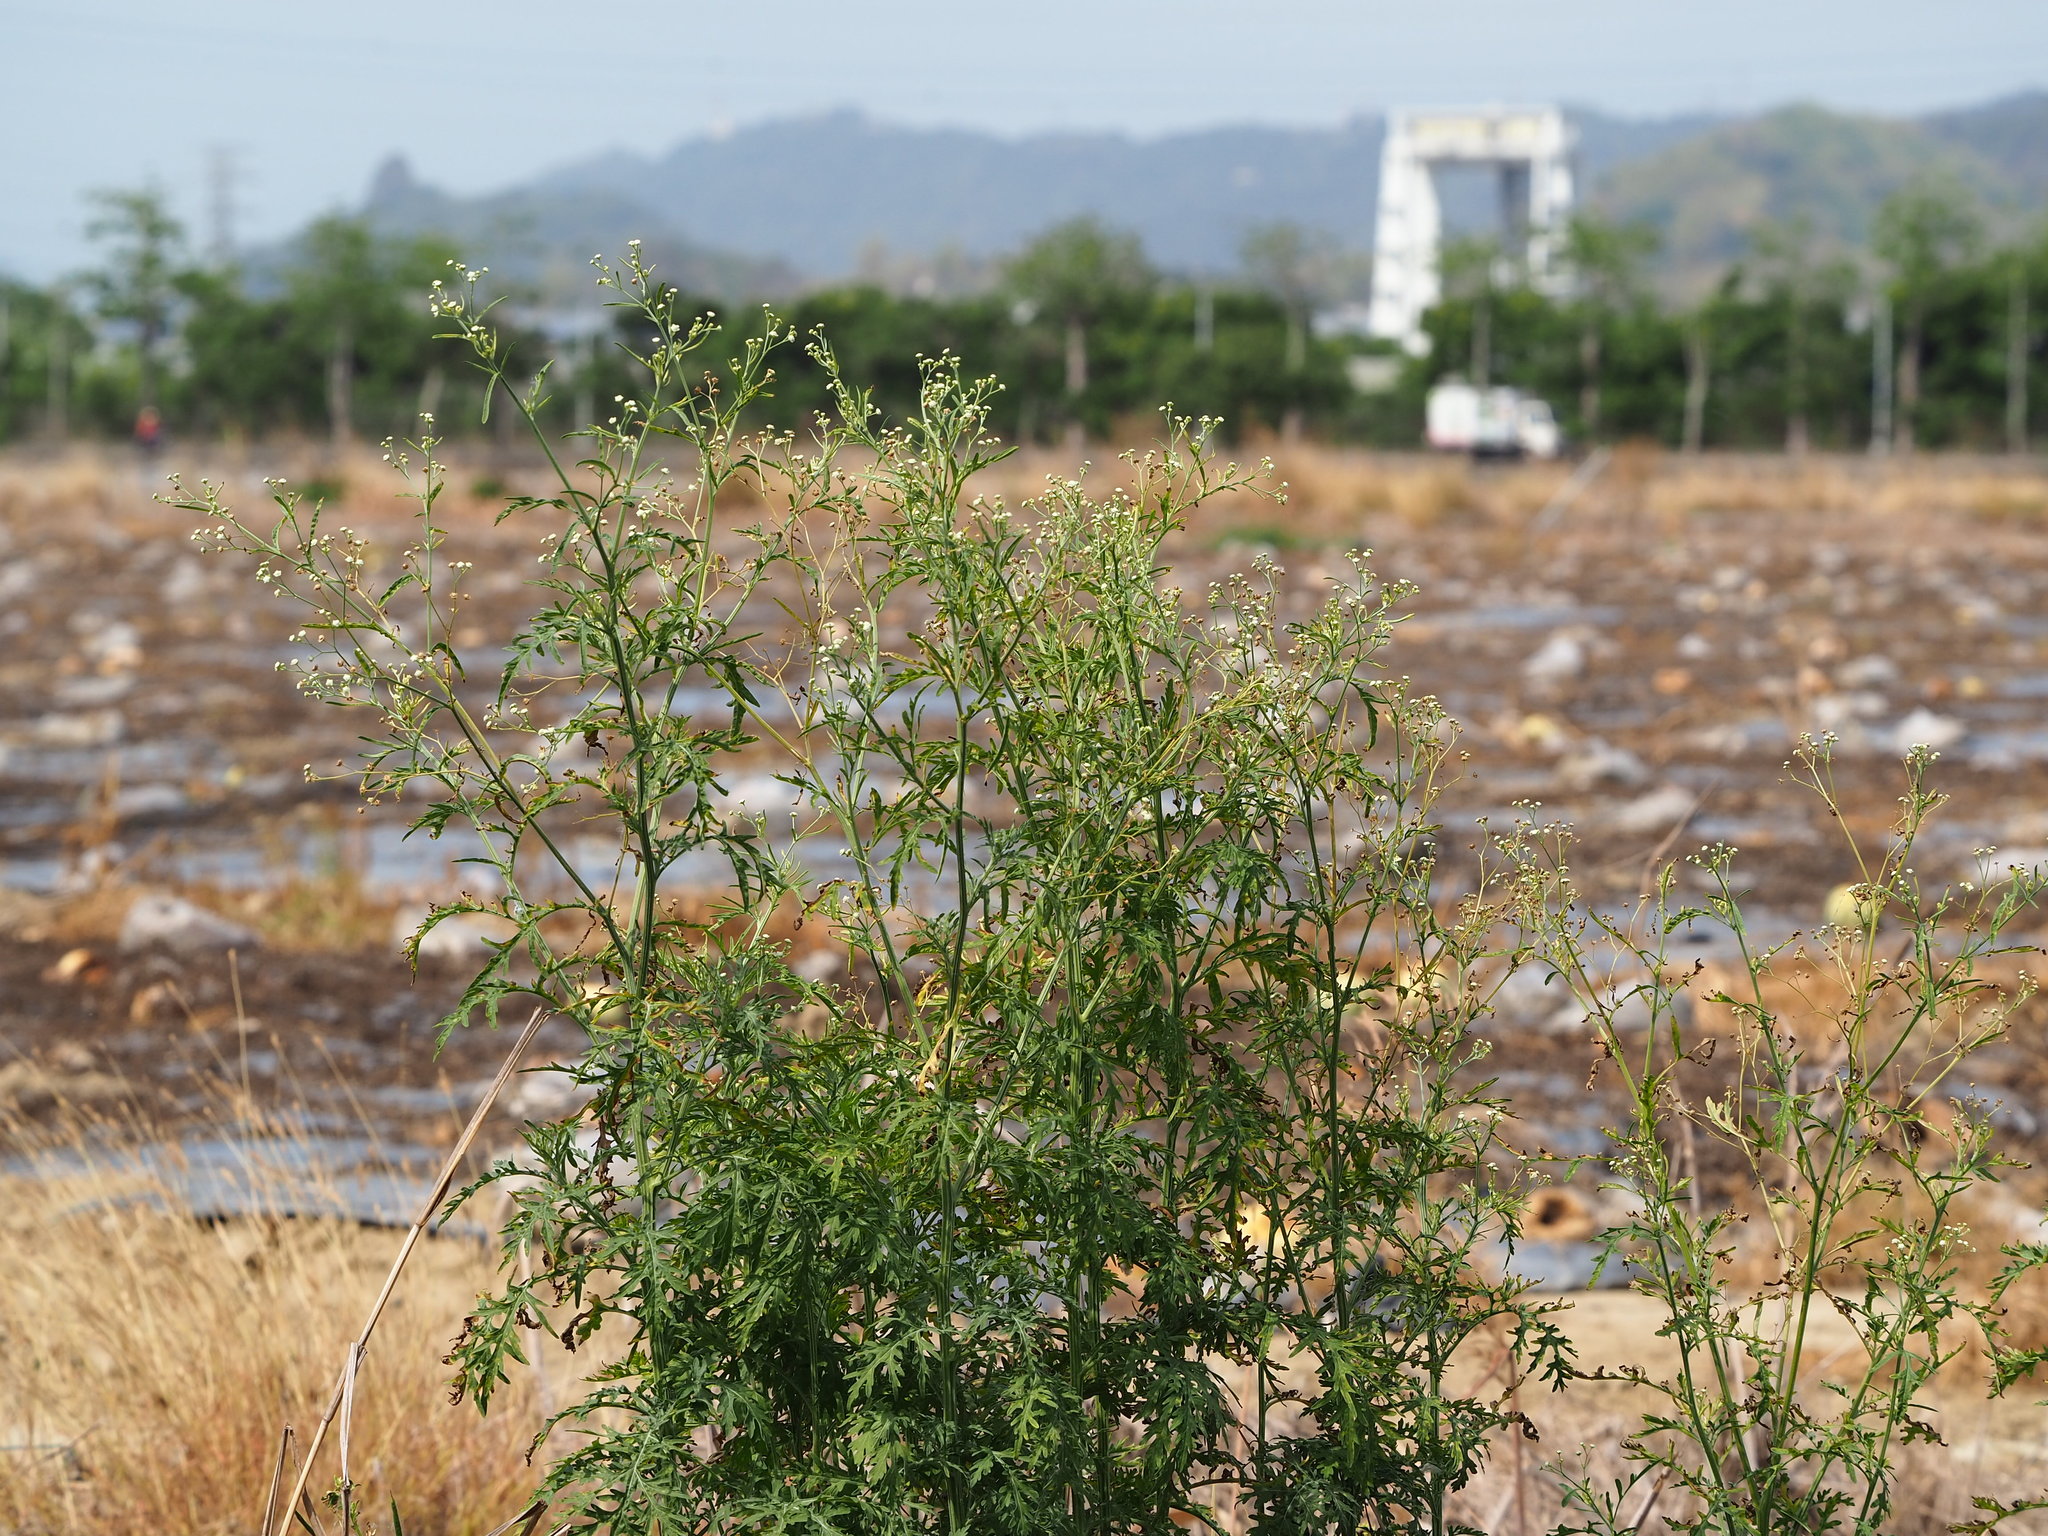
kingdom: Plantae
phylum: Tracheophyta
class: Magnoliopsida
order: Asterales
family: Asteraceae
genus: Parthenium
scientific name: Parthenium hysterophorus
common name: Santa maria feverfew
